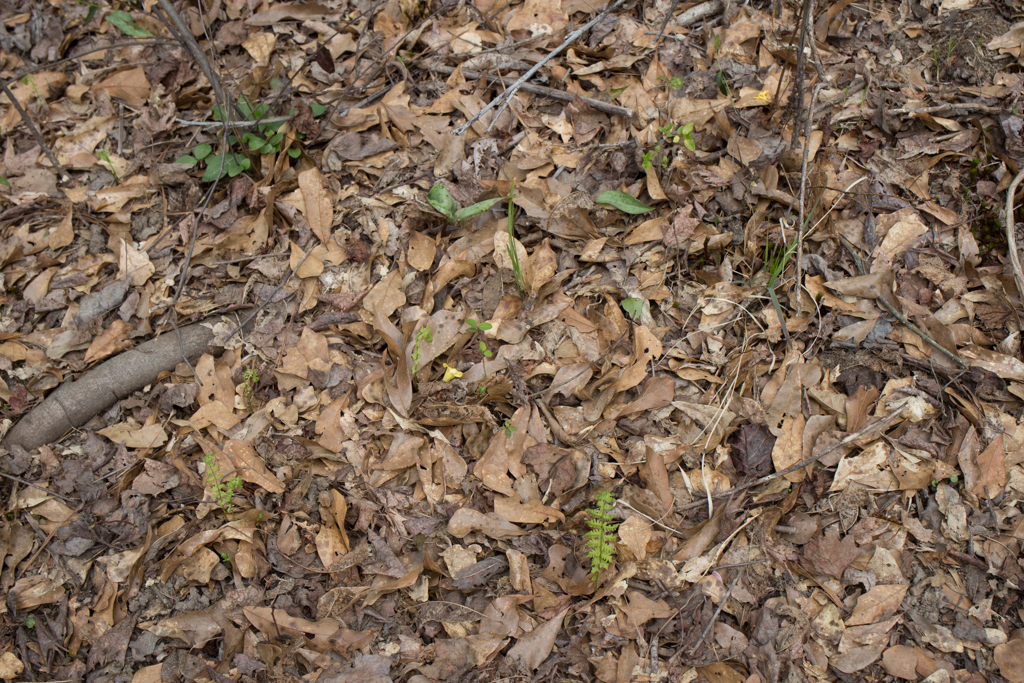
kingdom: Plantae
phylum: Tracheophyta
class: Polypodiopsida
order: Polypodiales
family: Thelypteridaceae
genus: Amauropelta
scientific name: Amauropelta noveboracensis
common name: New york fern
